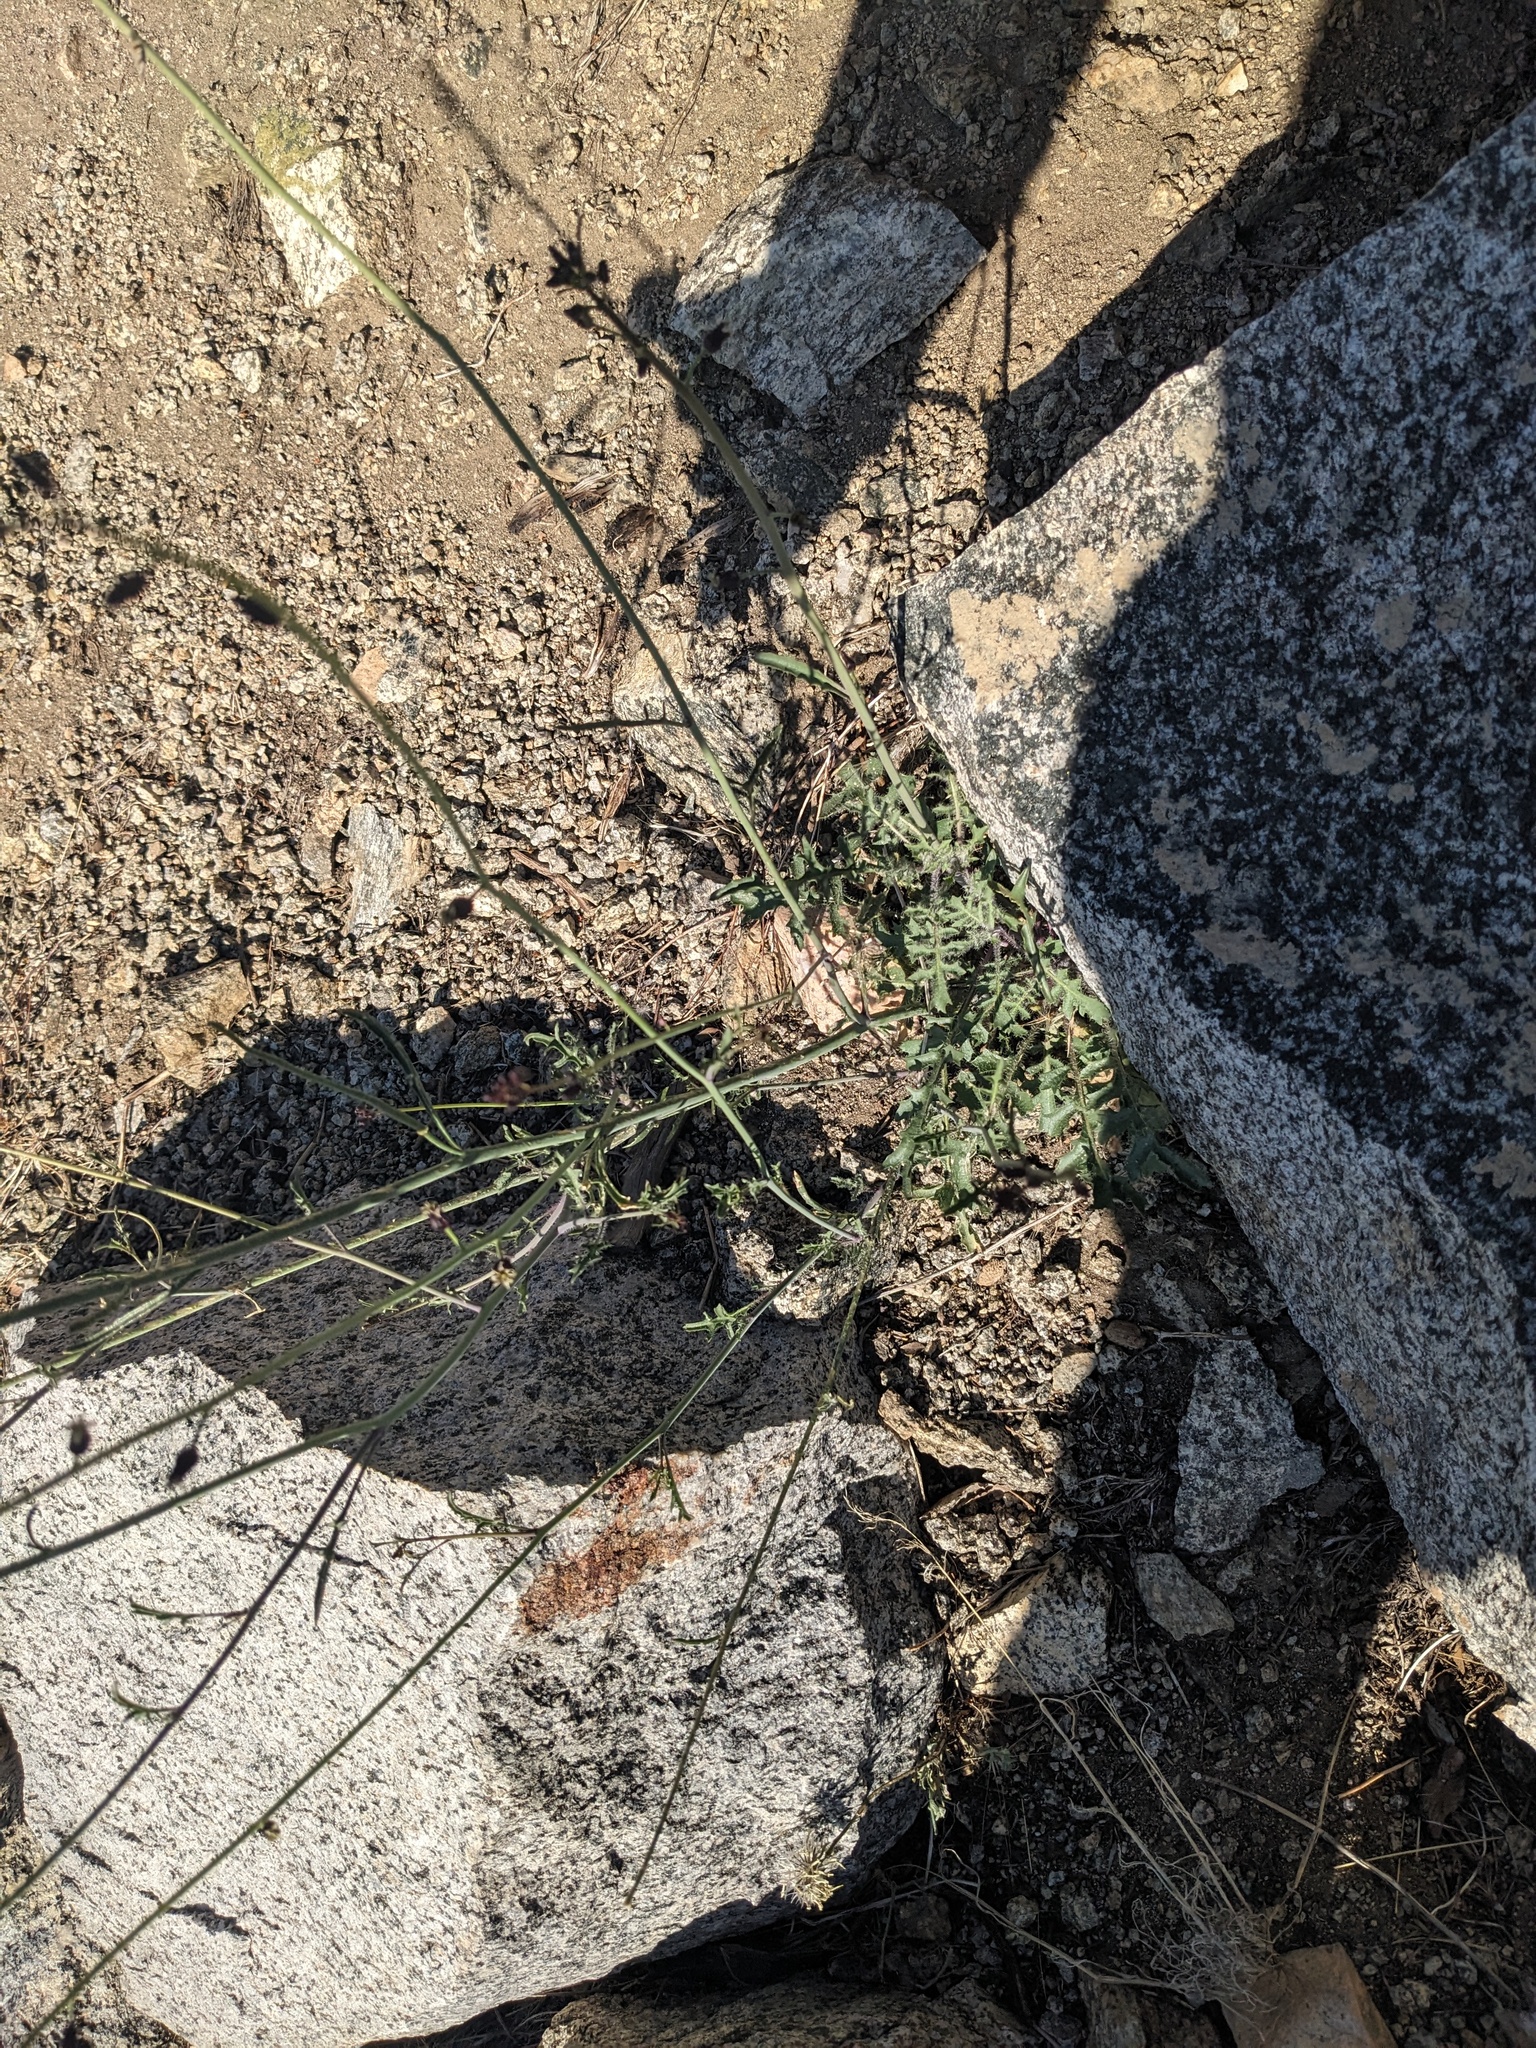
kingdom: Plantae
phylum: Tracheophyta
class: Magnoliopsida
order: Brassicales
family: Brassicaceae
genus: Streptanthus
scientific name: Streptanthus pilosus
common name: Chocolate drops
